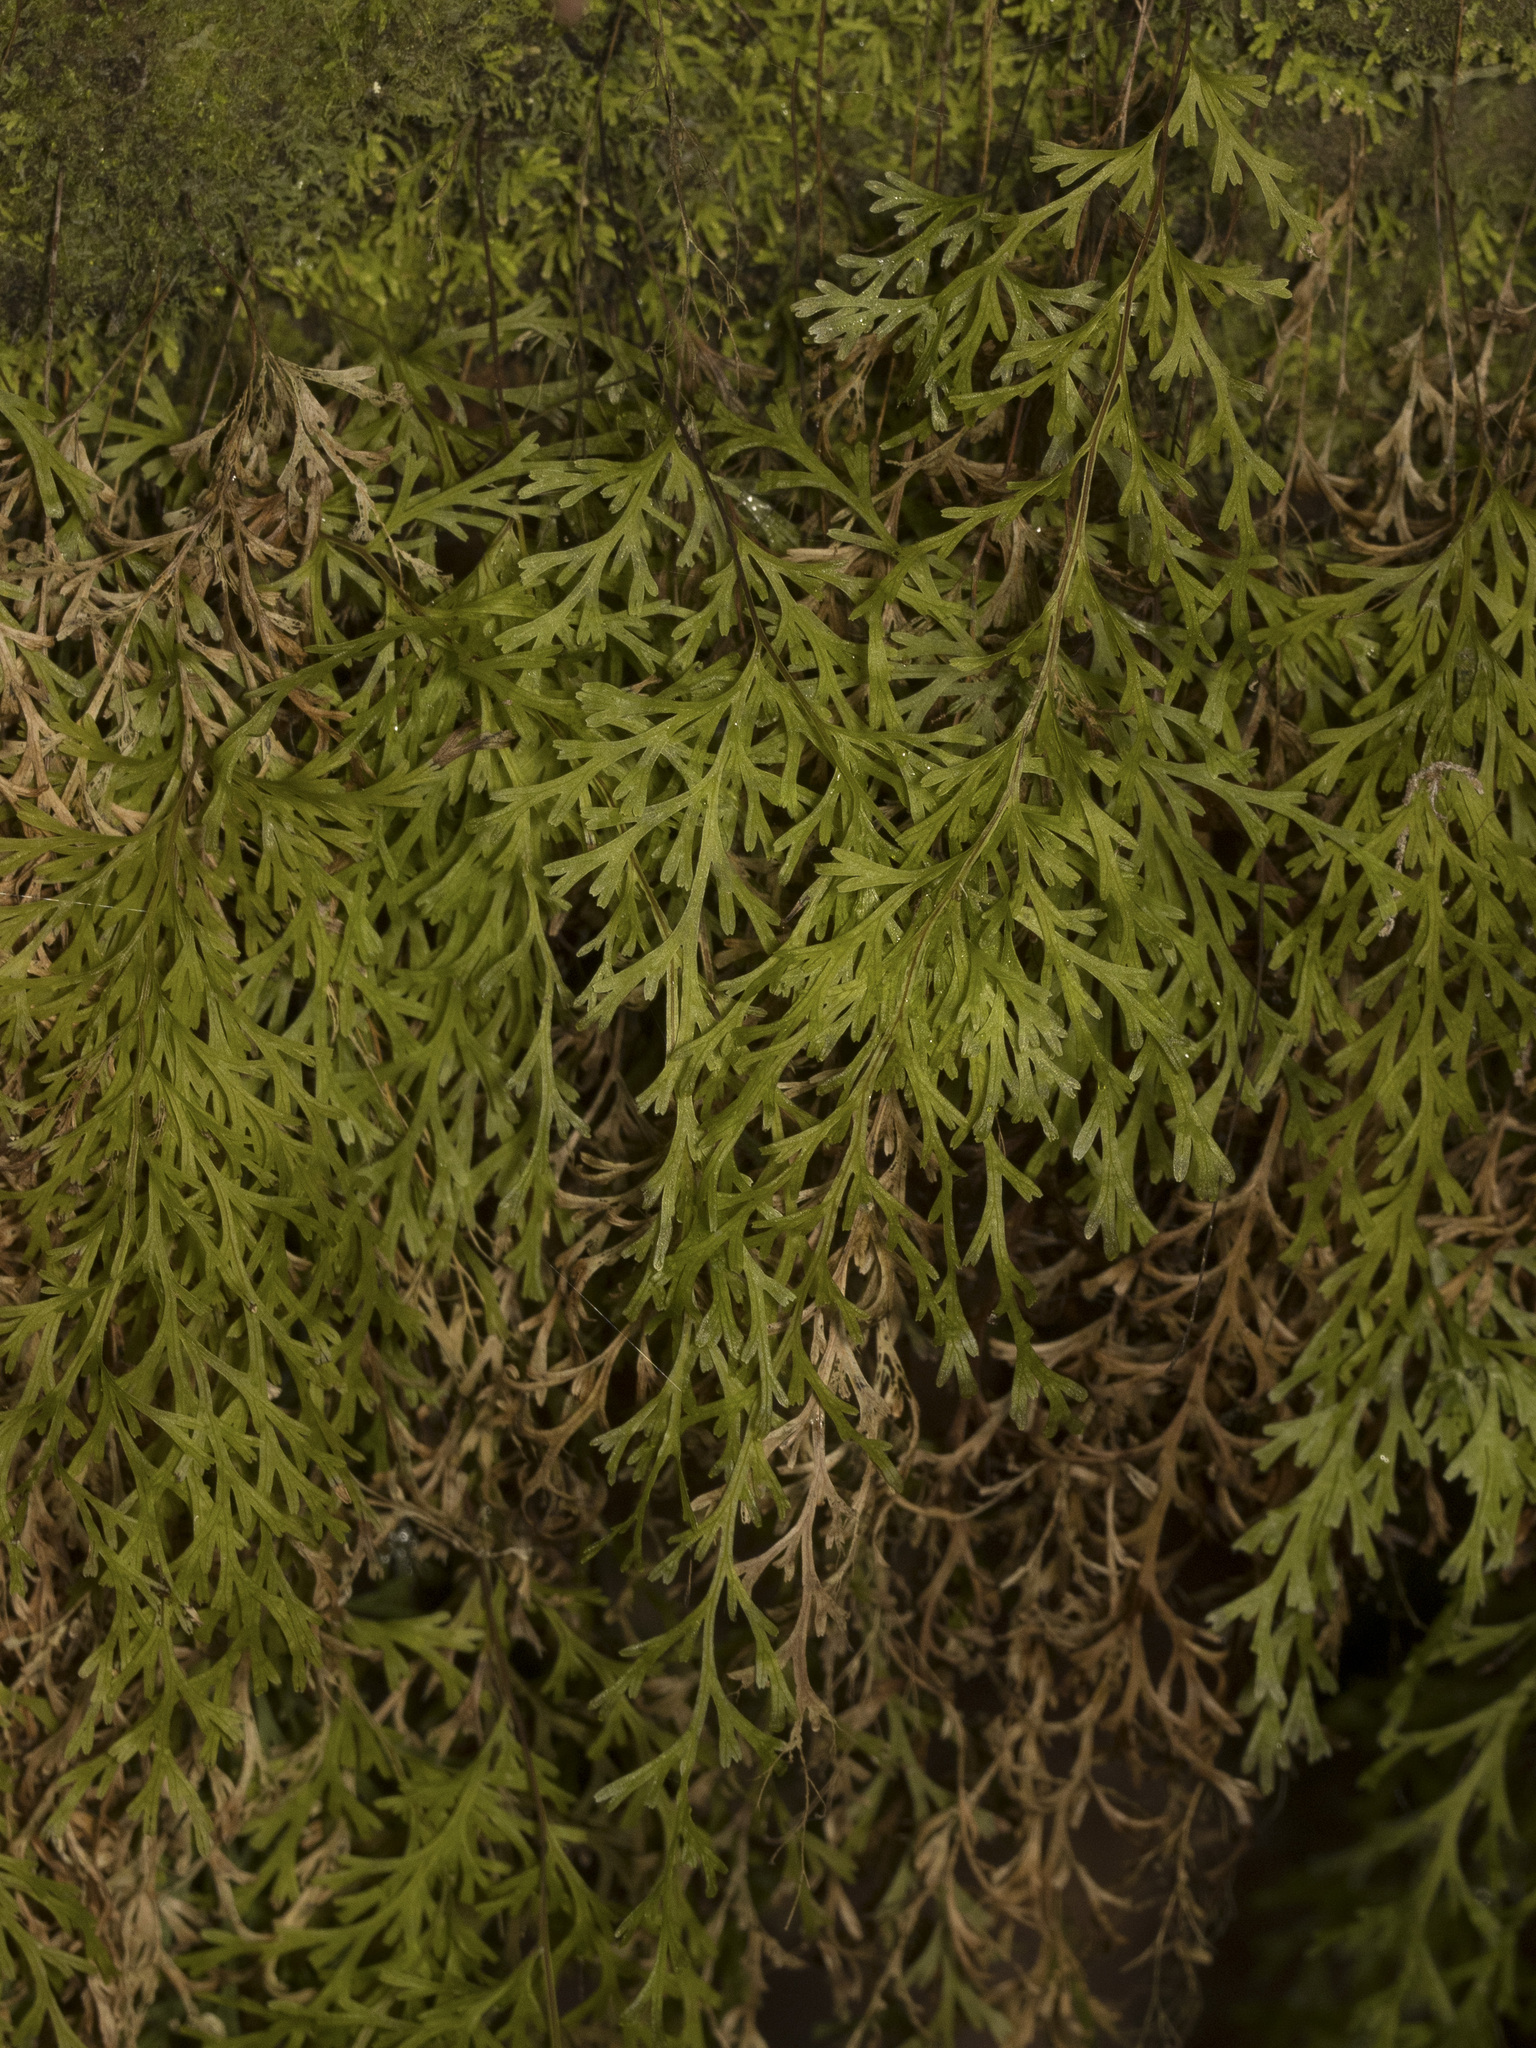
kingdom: Plantae
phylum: Tracheophyta
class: Polypodiopsida
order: Hymenophyllales
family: Hymenophyllaceae
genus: Polyphlebium
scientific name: Polyphlebium exsectum
